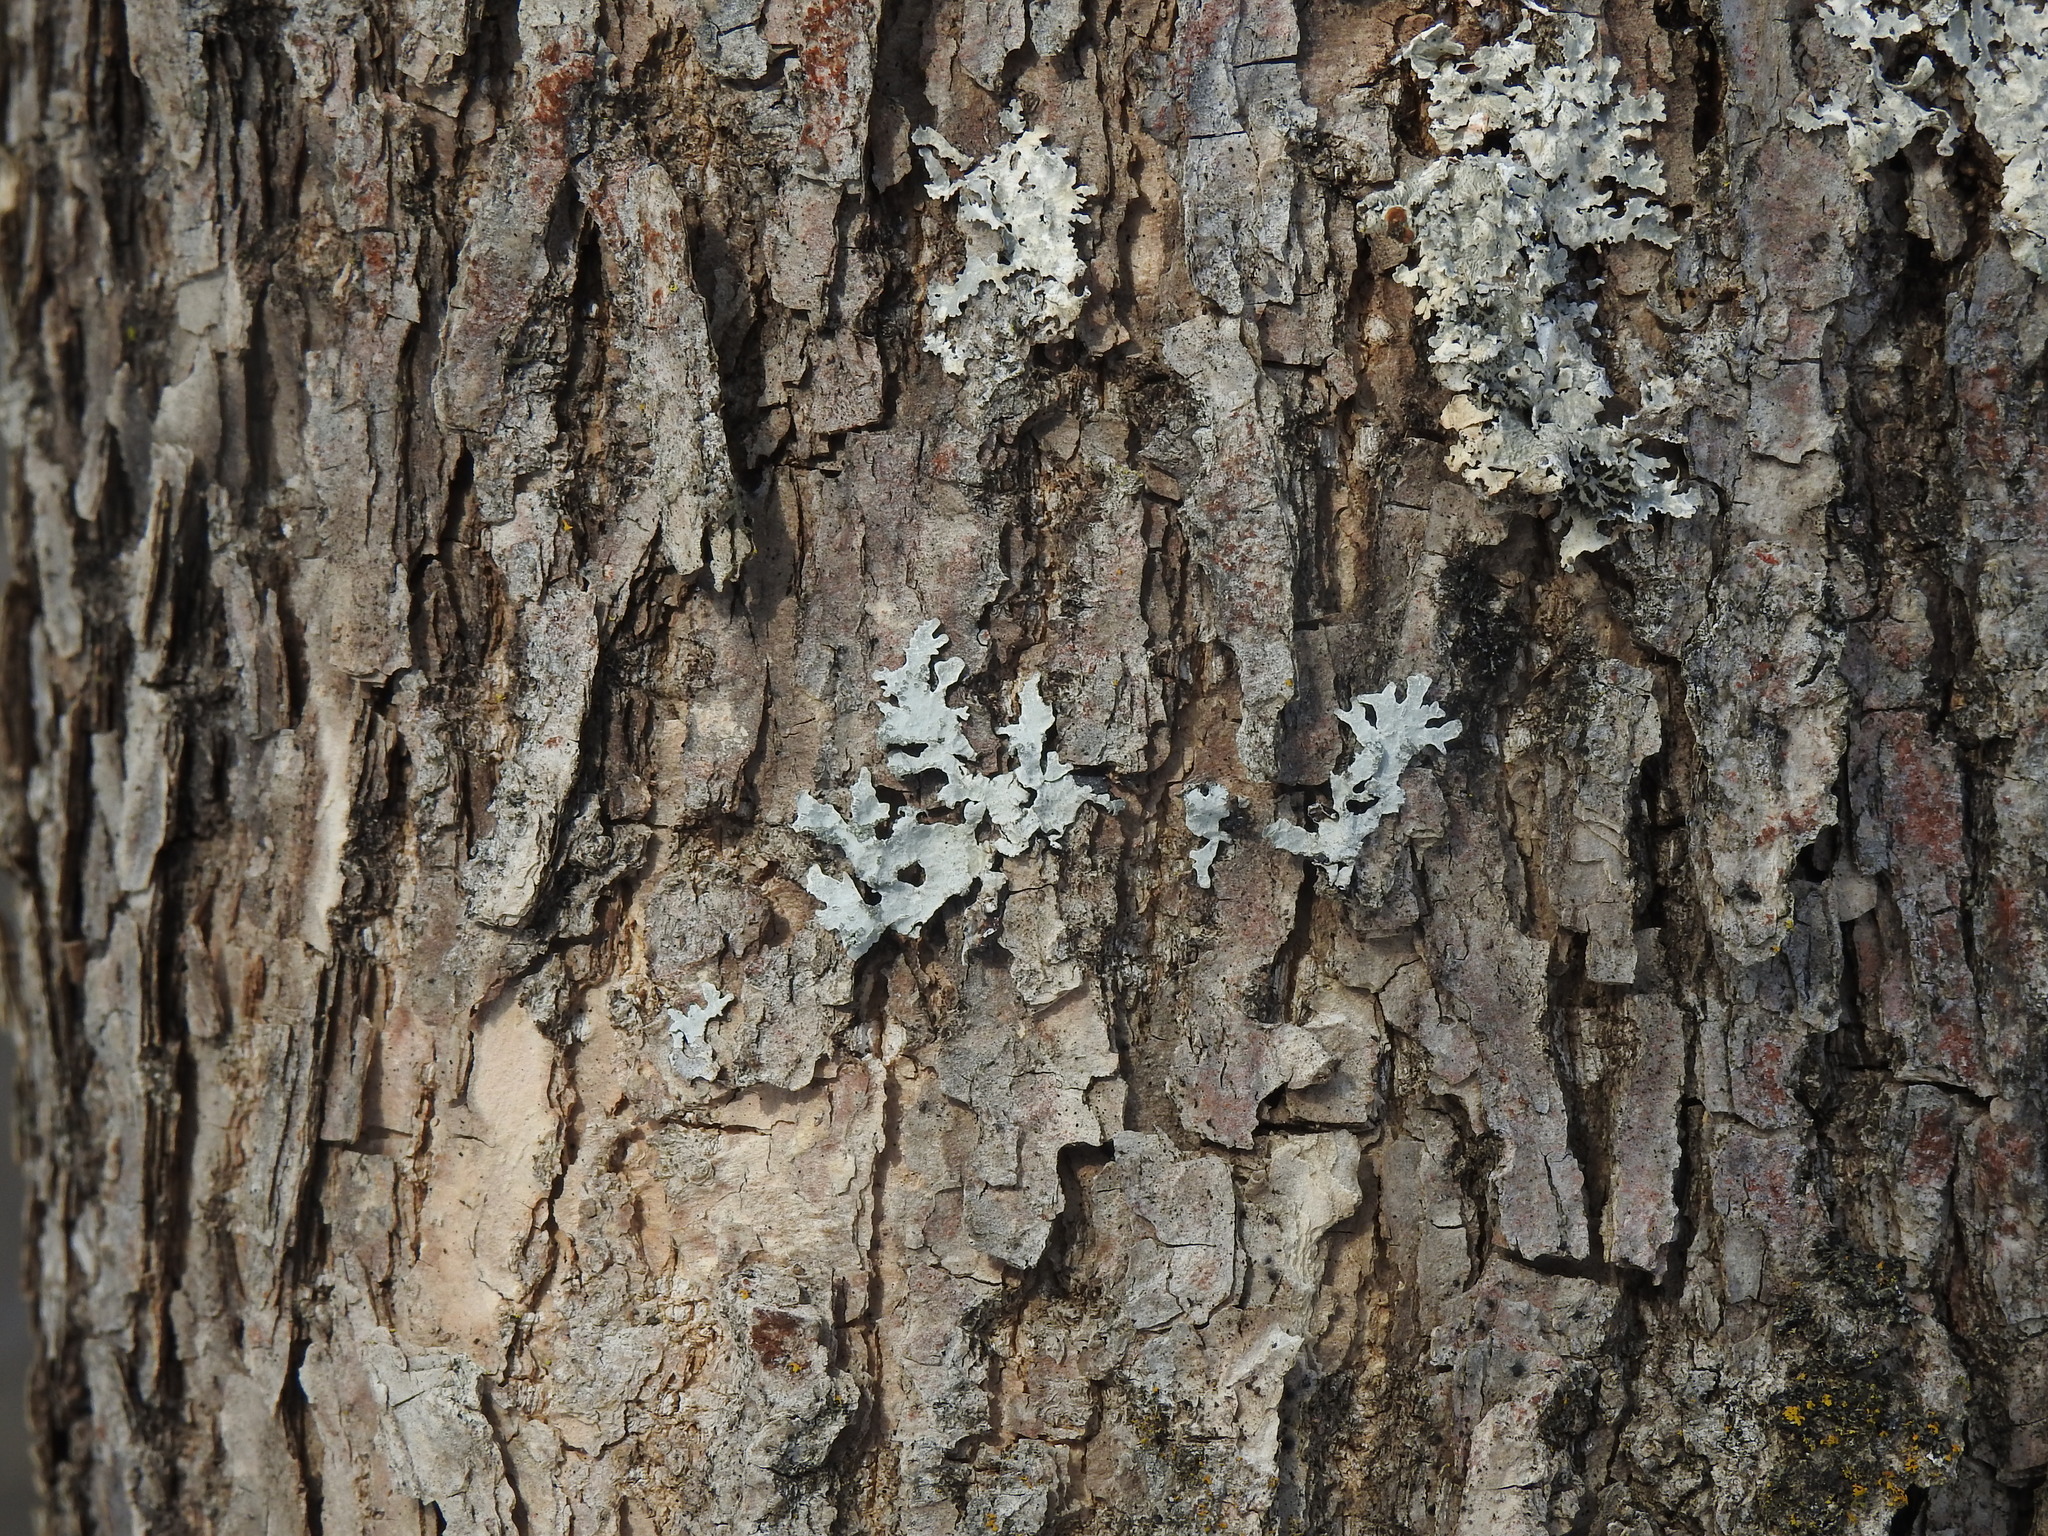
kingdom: Fungi
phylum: Ascomycota
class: Lecanoromycetes
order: Lecanorales
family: Parmeliaceae
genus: Parmelia
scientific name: Parmelia
